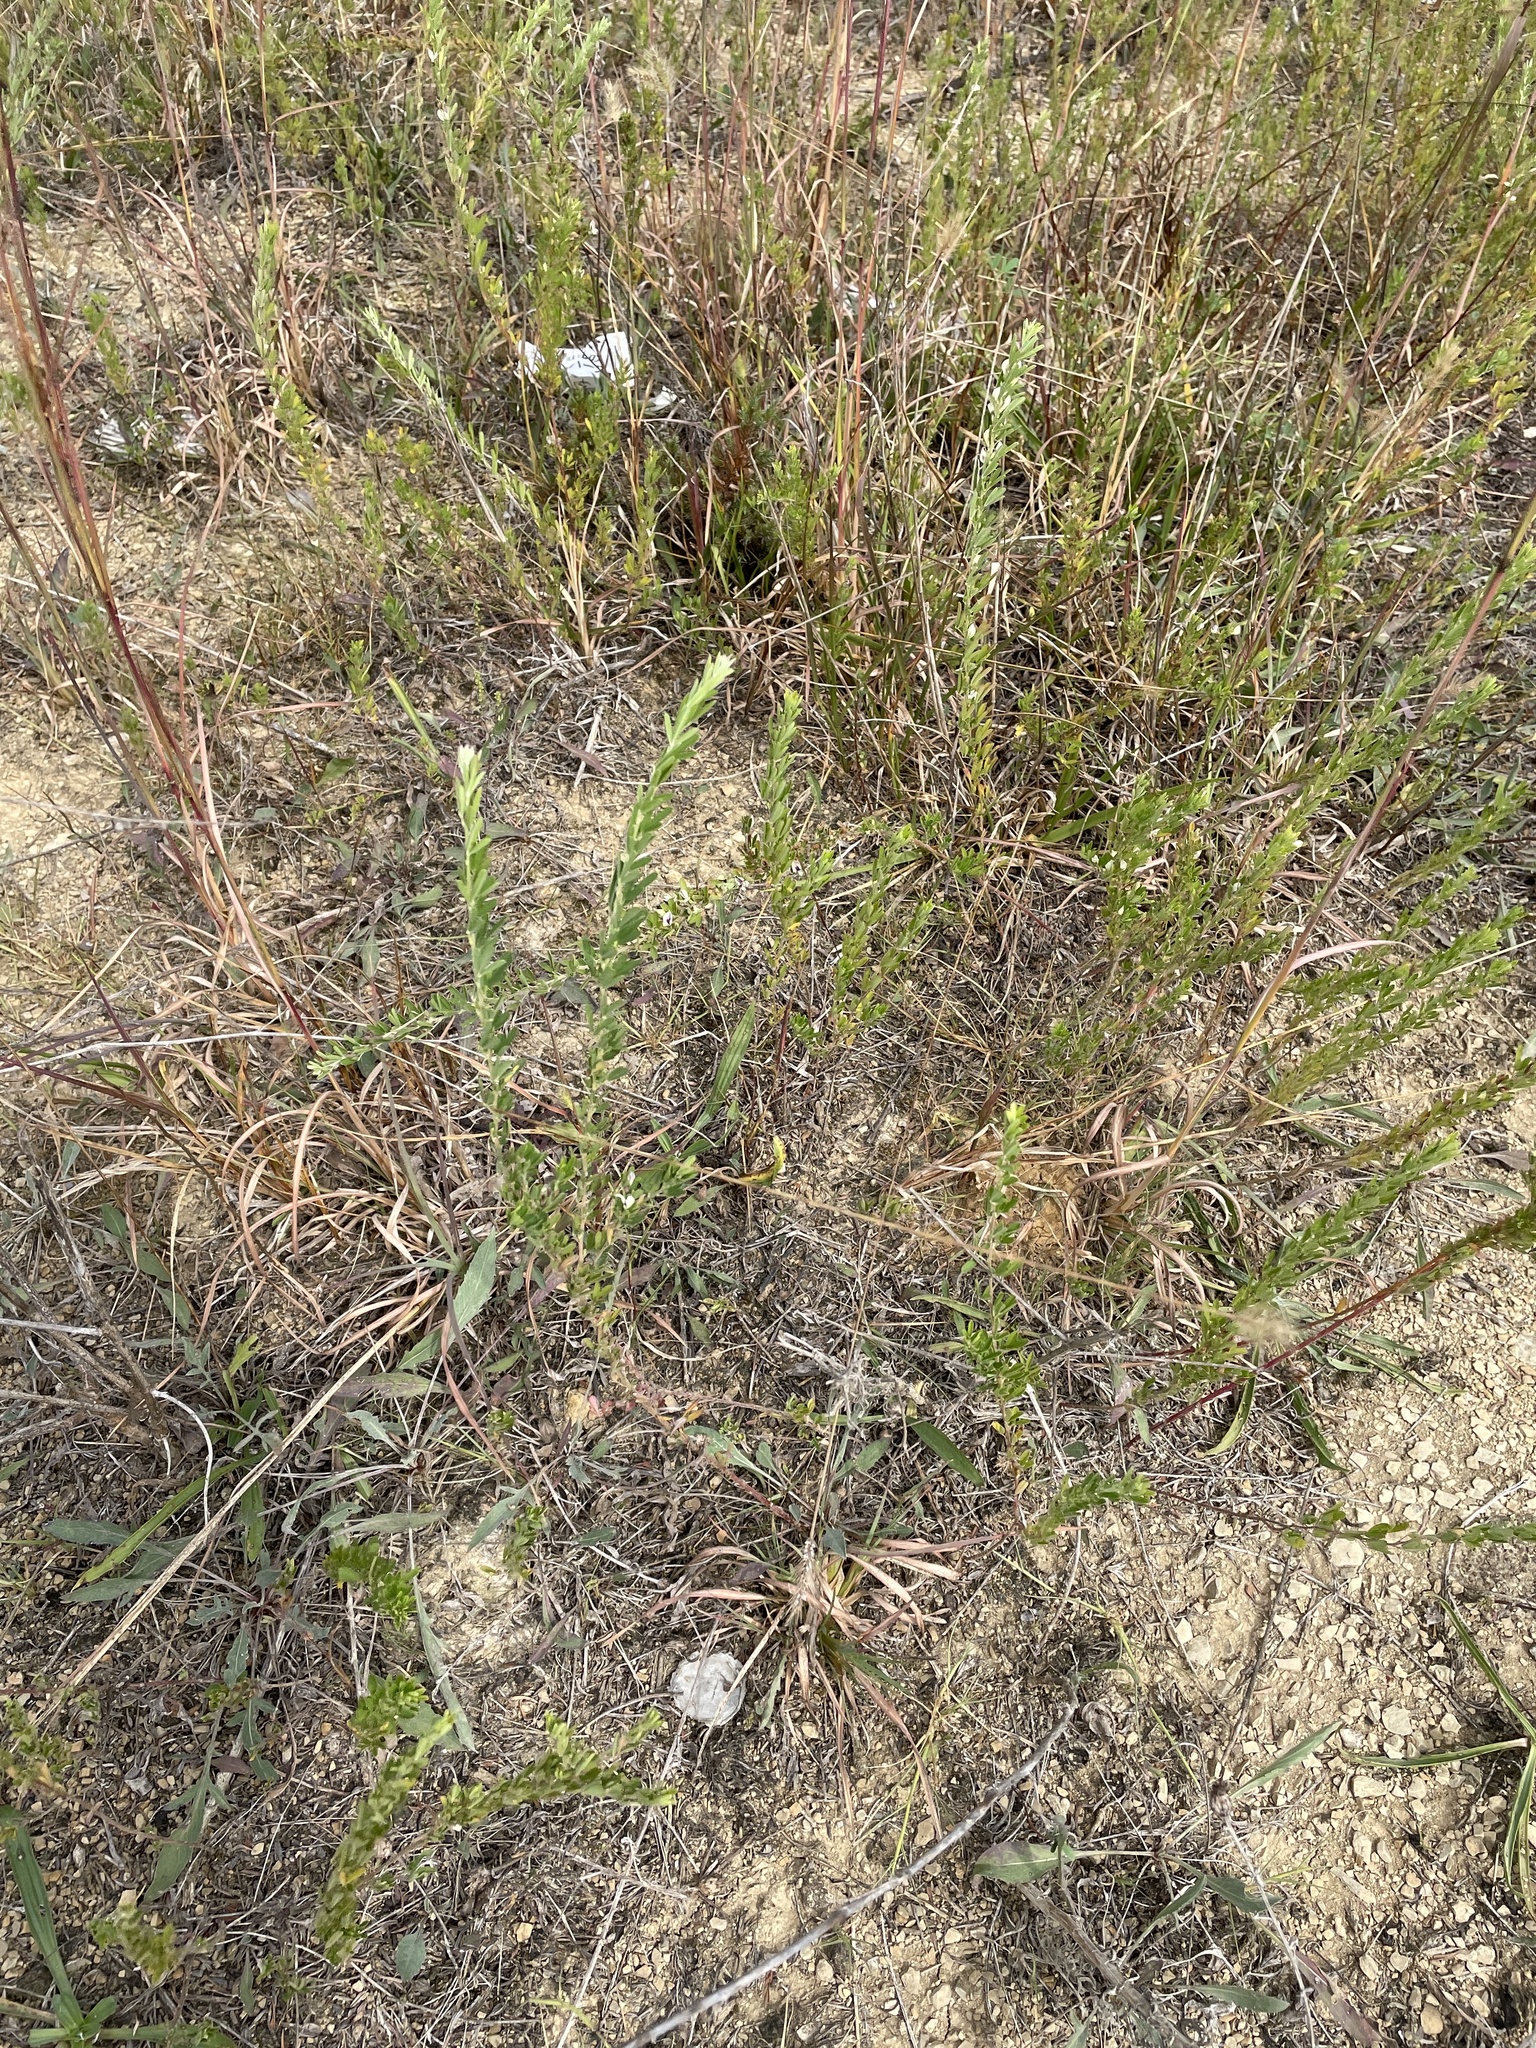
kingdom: Plantae
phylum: Tracheophyta
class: Magnoliopsida
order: Fabales
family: Fabaceae
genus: Lespedeza
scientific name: Lespedeza cuneata
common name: Chinese bush-clover
